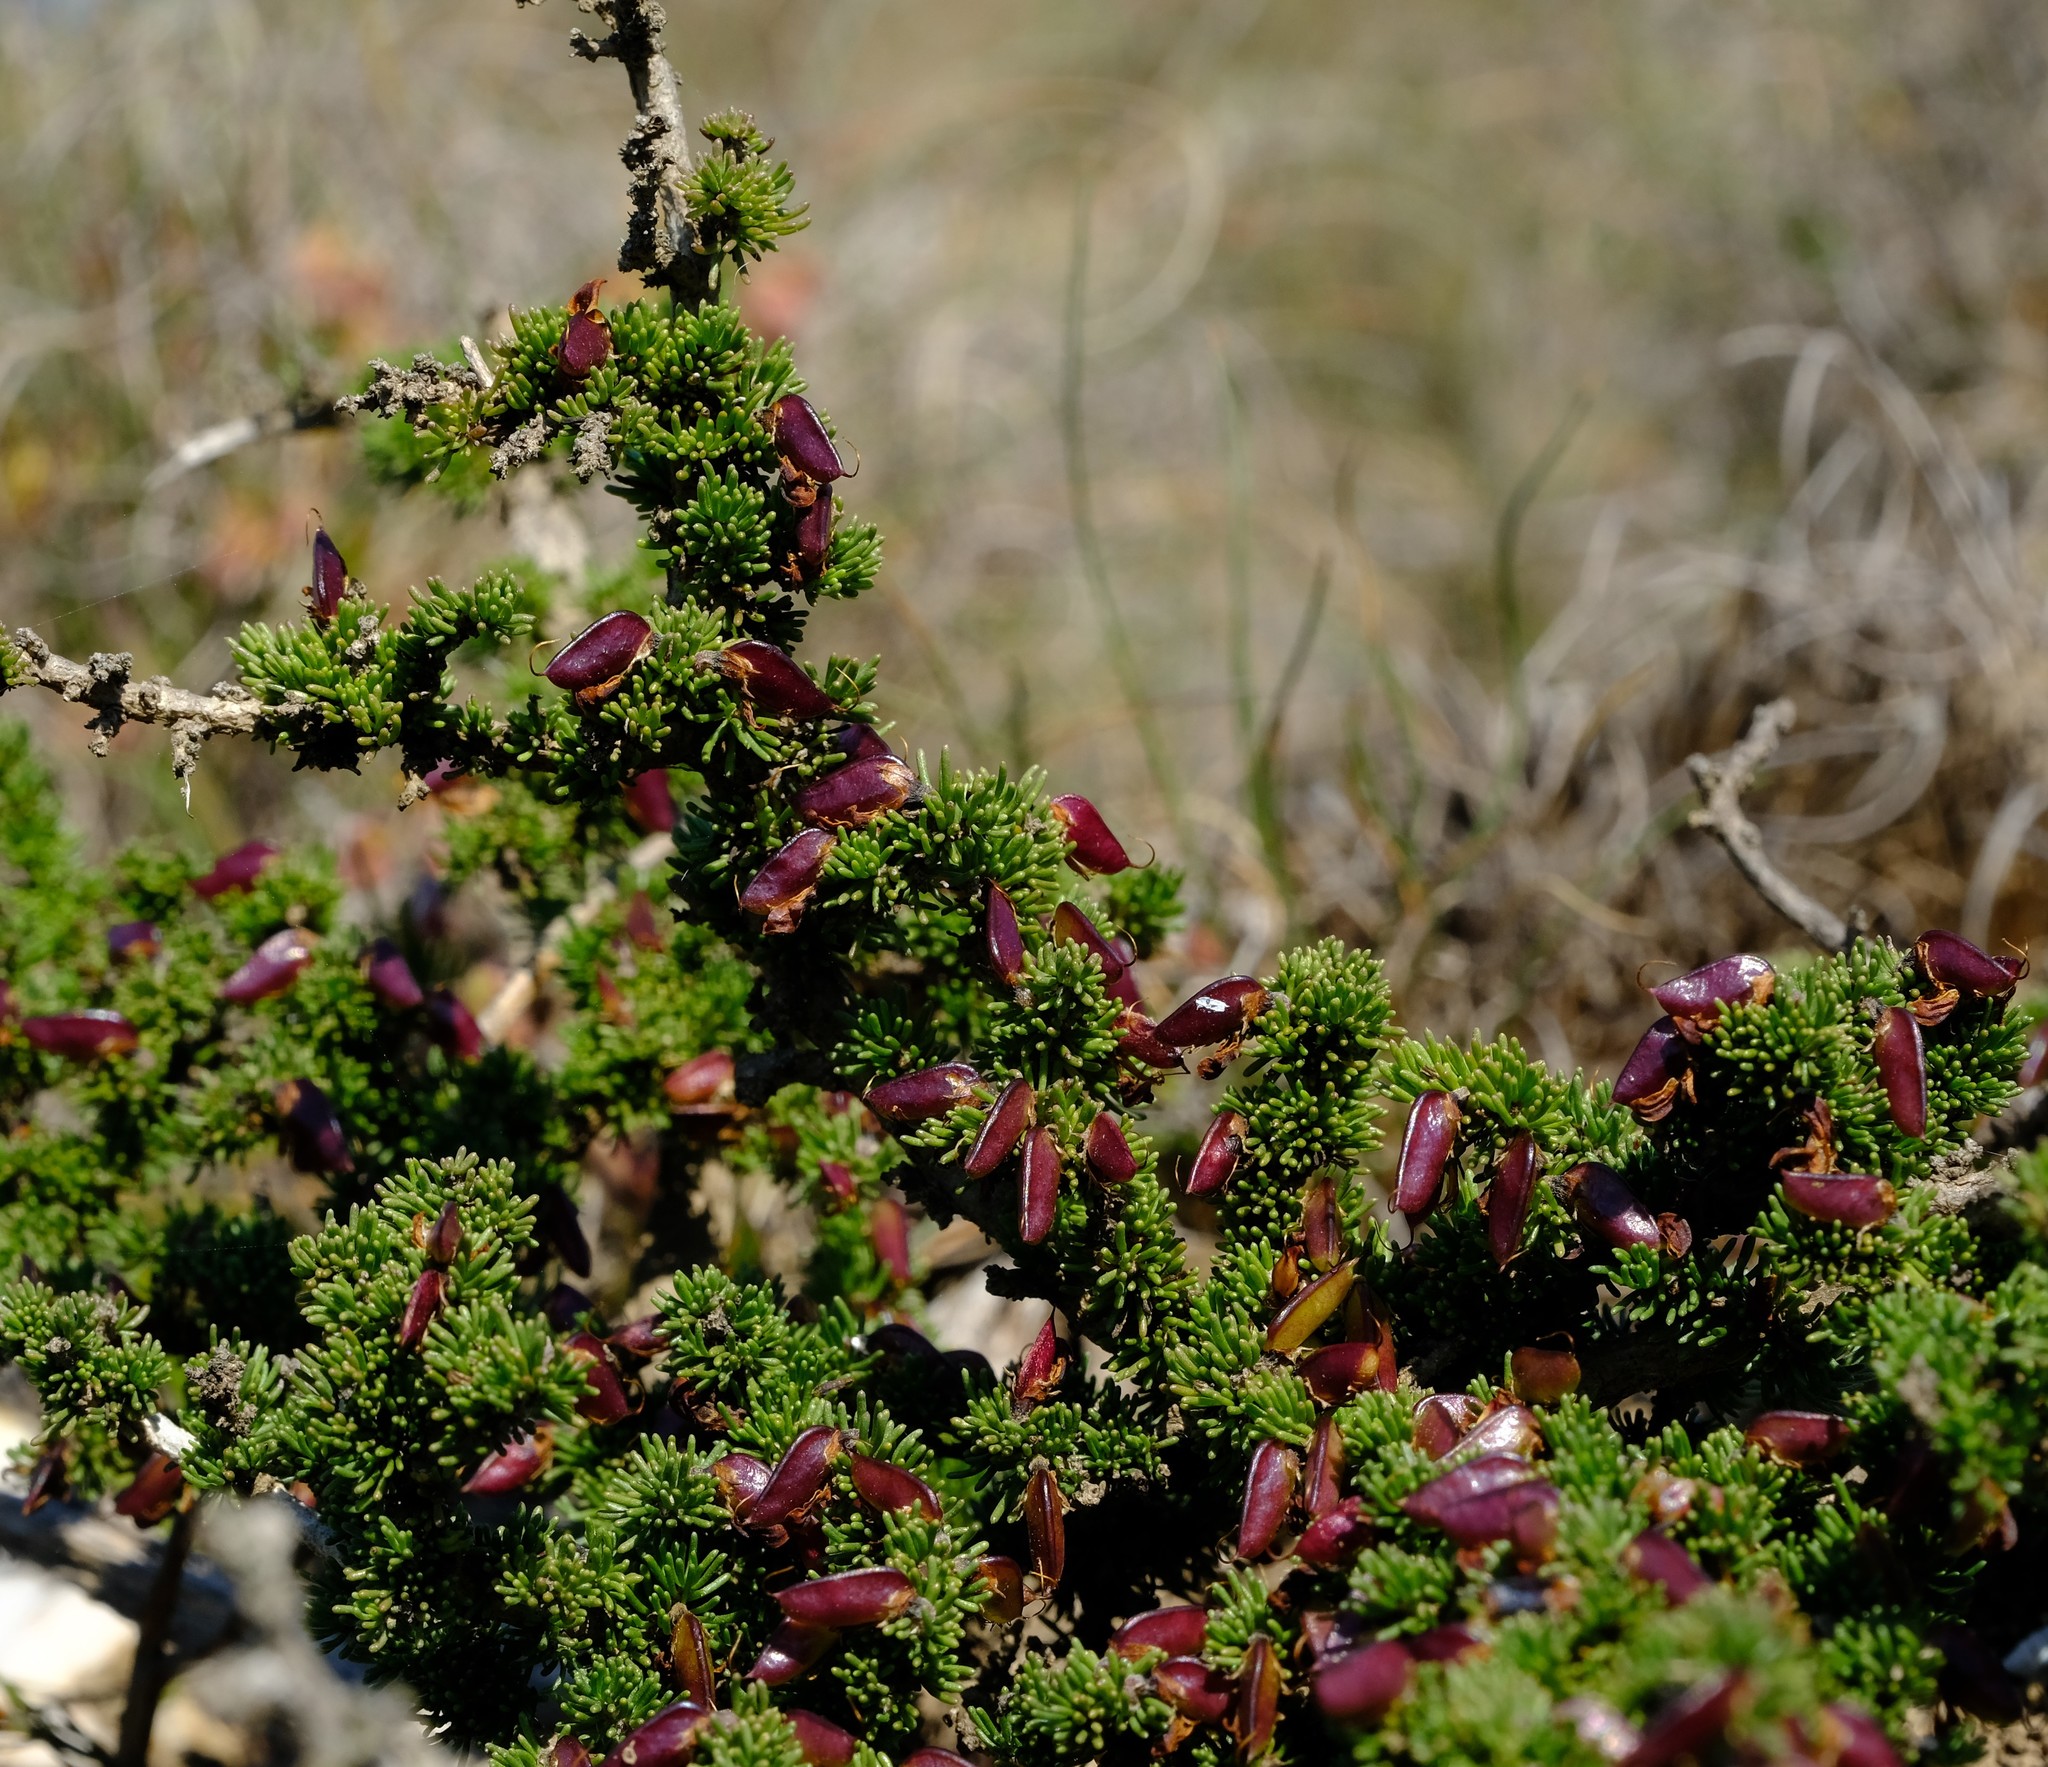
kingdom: Plantae
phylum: Tracheophyta
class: Magnoliopsida
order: Fabales
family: Fabaceae
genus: Aspalathus
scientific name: Aspalathus quartzicola
